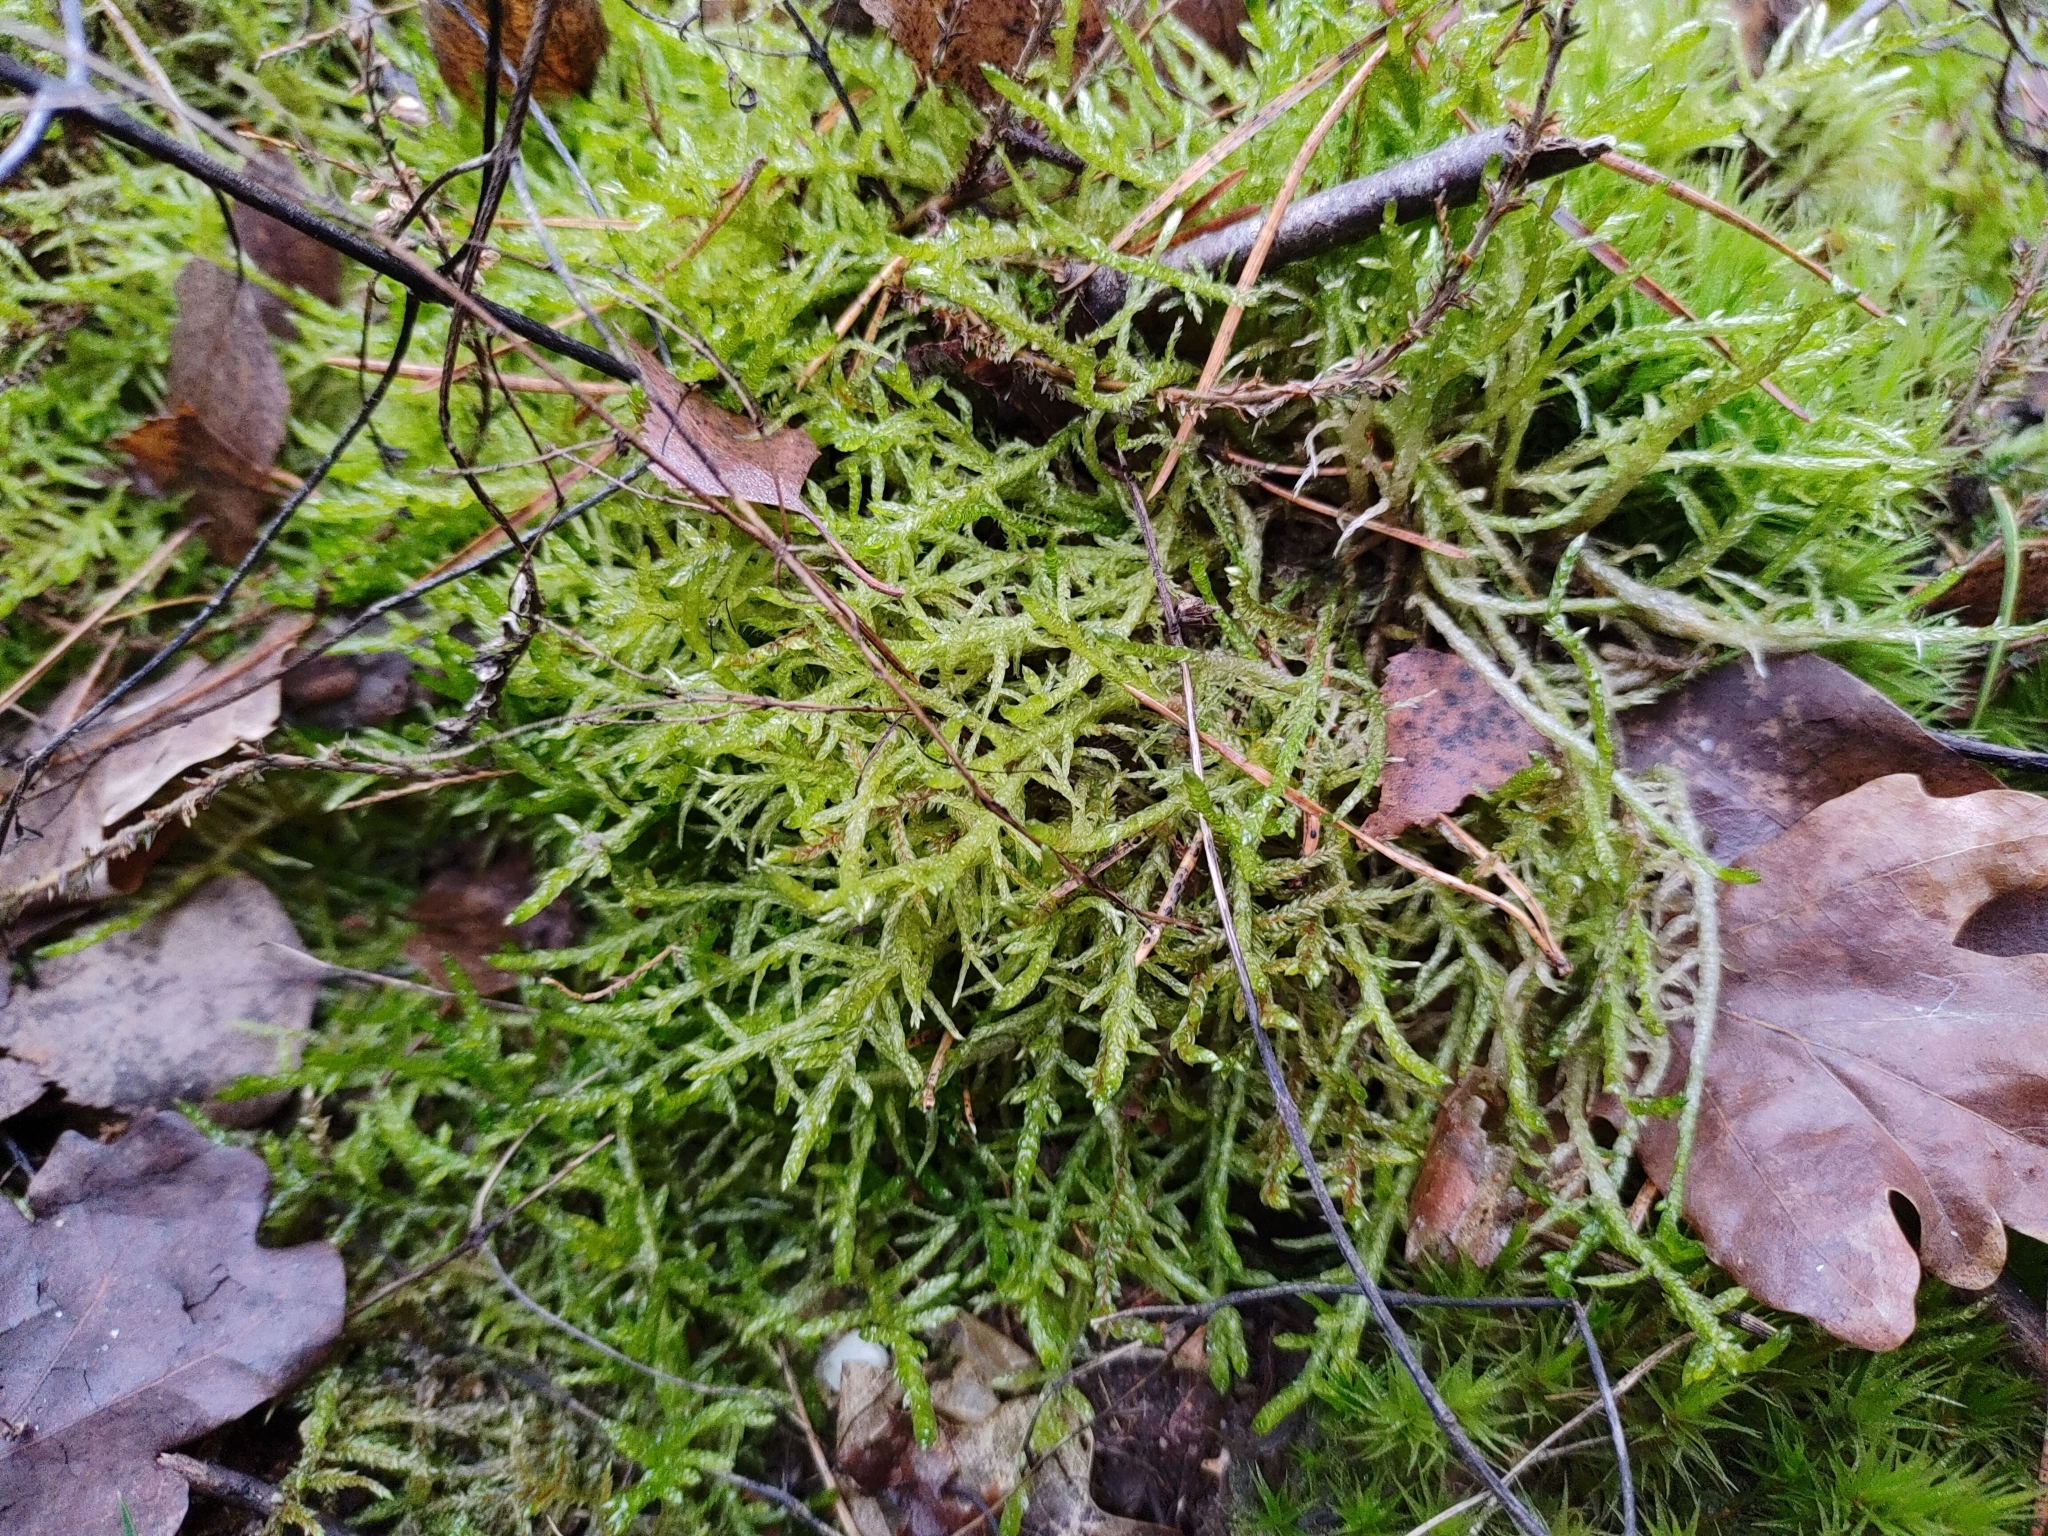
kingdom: Plantae
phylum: Bryophyta
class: Bryopsida
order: Hypnales
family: Brachytheciaceae
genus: Pseudoscleropodium
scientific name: Pseudoscleropodium purum
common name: Neat feather-moss
